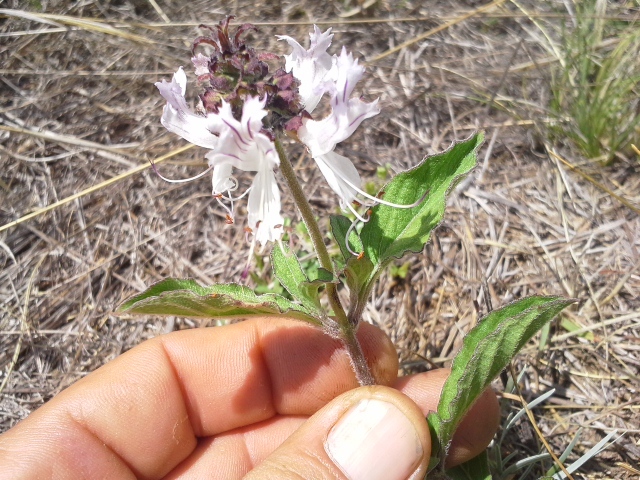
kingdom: Plantae
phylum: Tracheophyta
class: Magnoliopsida
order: Lamiales
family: Lamiaceae
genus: Ocimum
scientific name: Ocimum obovatum
